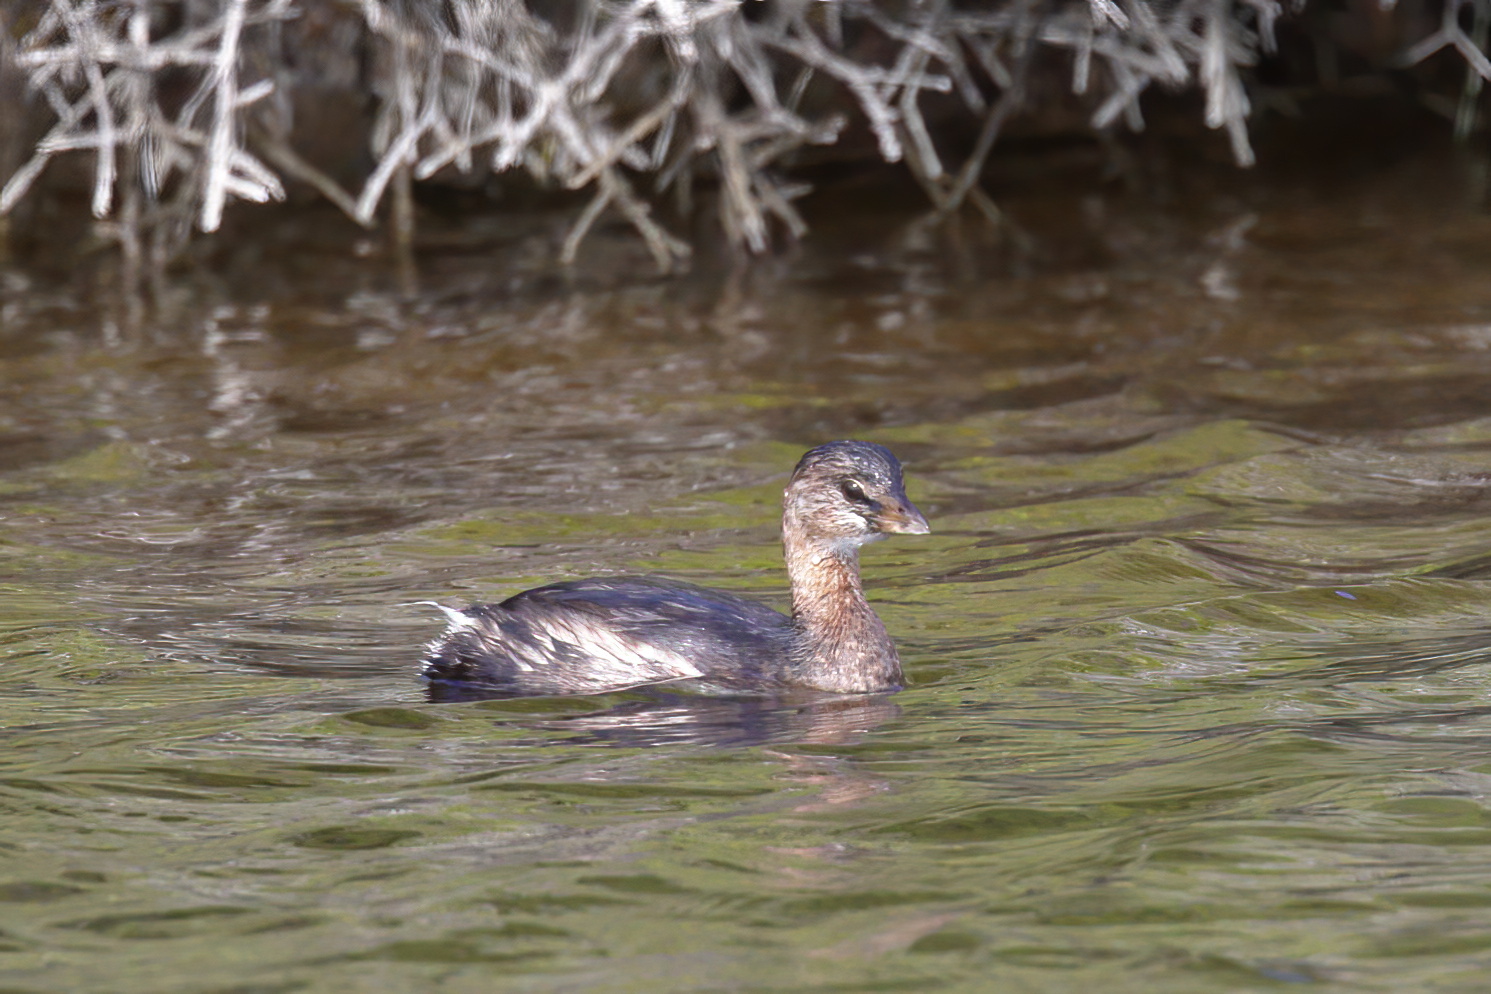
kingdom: Animalia
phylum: Chordata
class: Aves
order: Podicipediformes
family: Podicipedidae
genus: Podilymbus
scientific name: Podilymbus podiceps
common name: Pied-billed grebe
